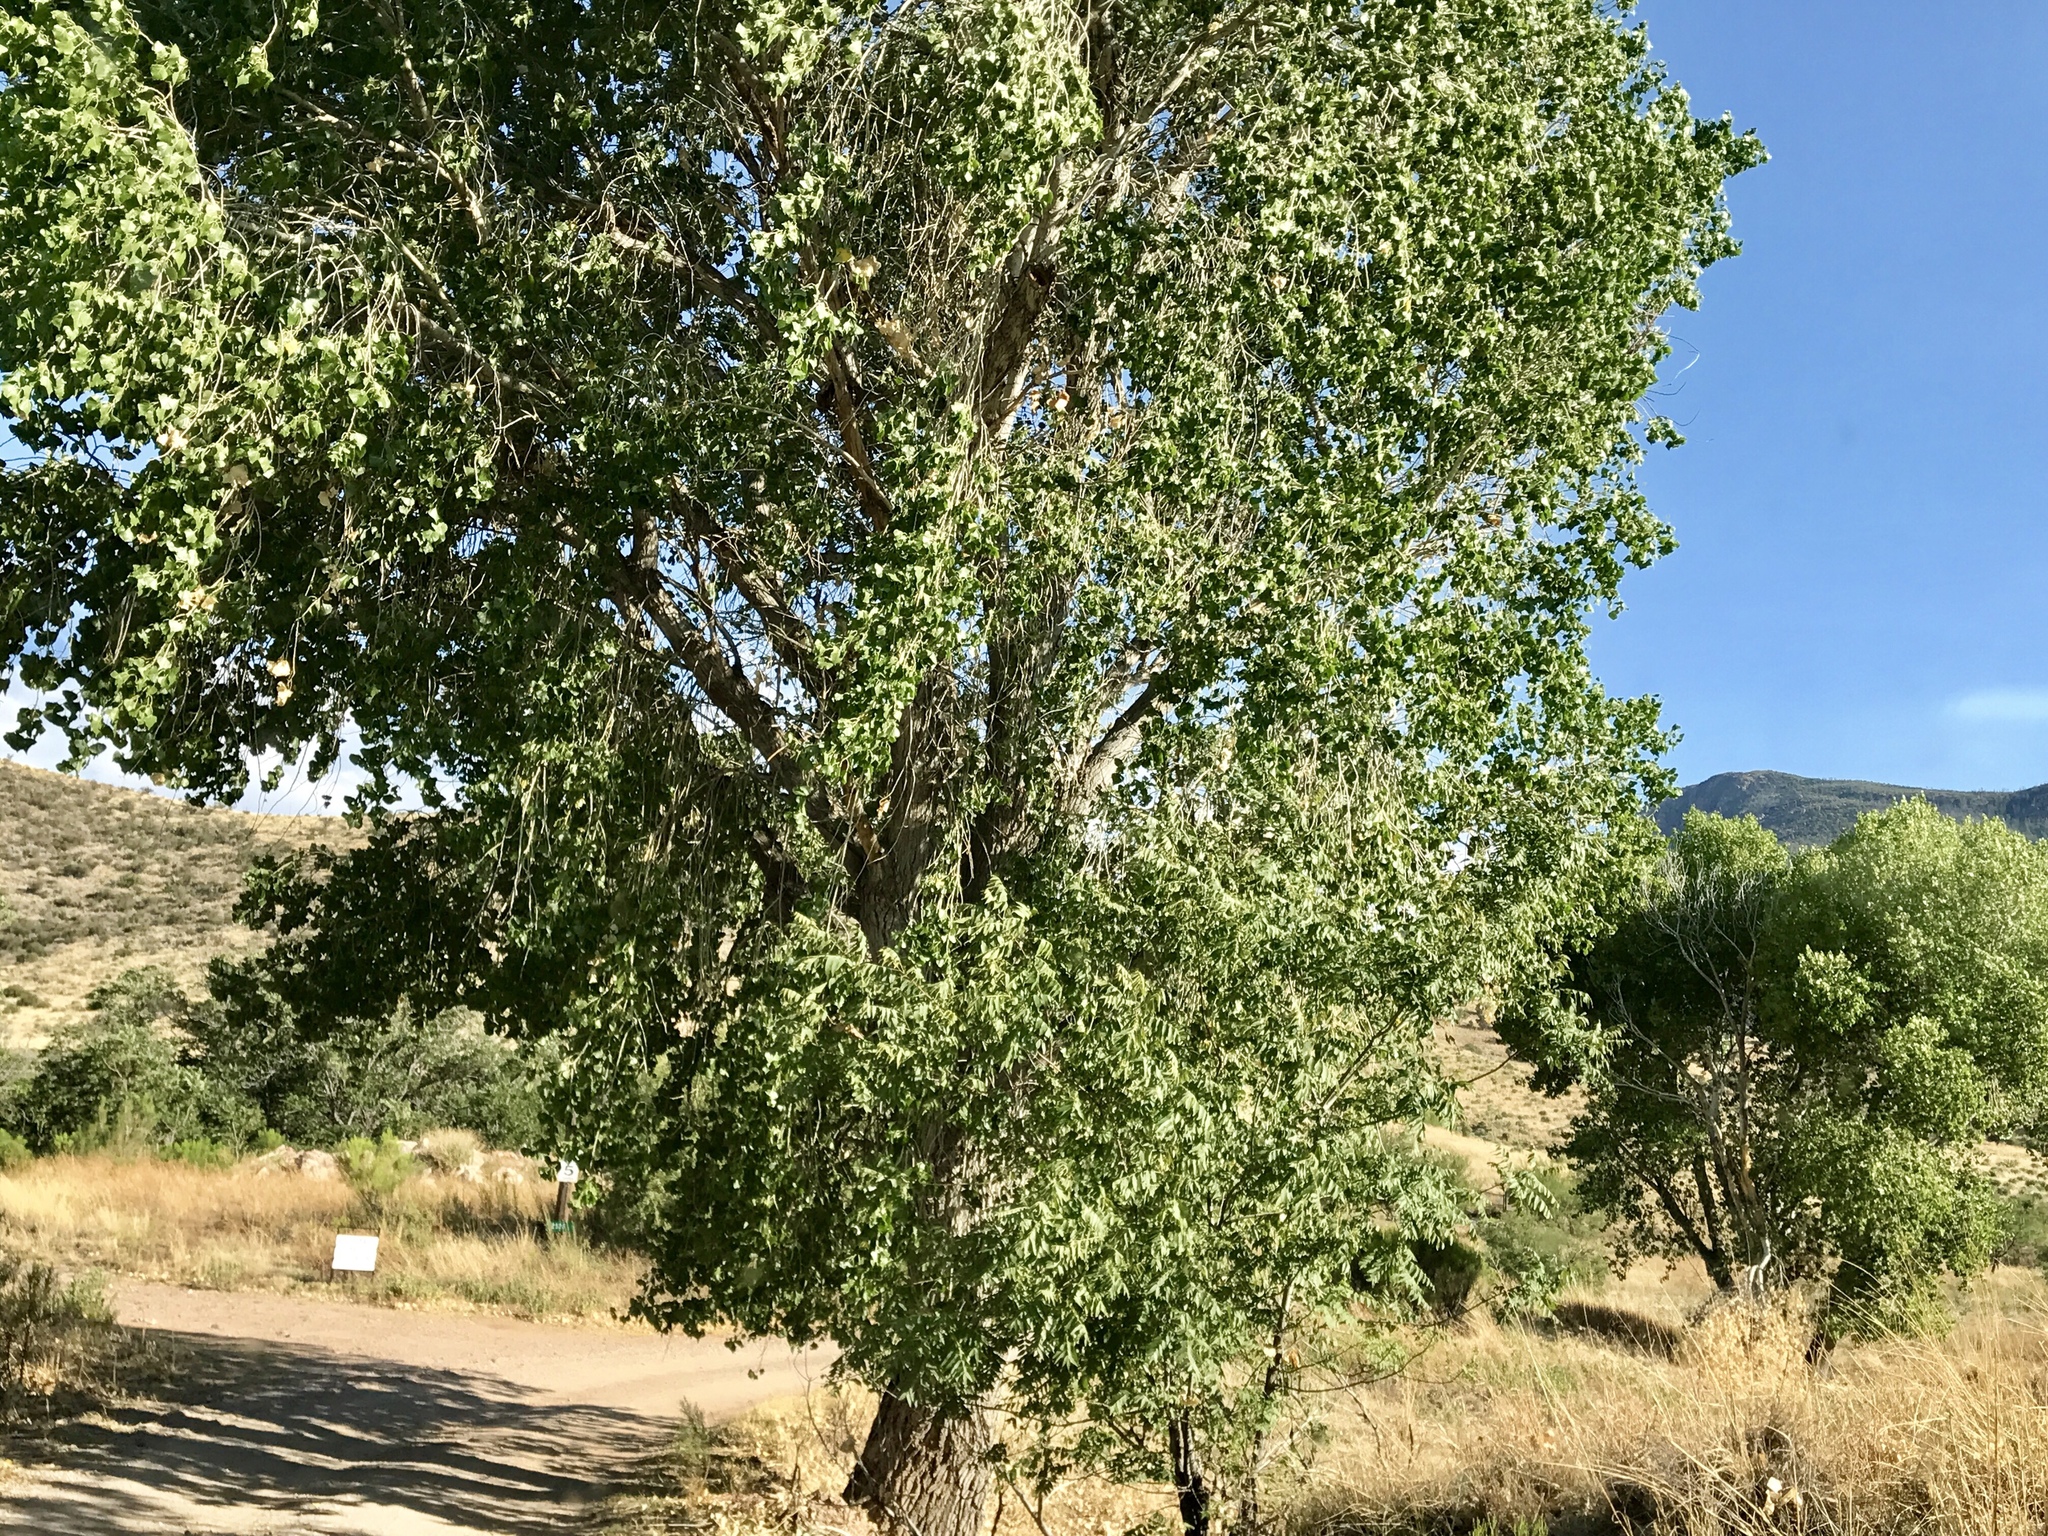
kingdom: Plantae
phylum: Tracheophyta
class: Magnoliopsida
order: Malpighiales
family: Salicaceae
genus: Populus
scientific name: Populus fremontii
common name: Fremont's cottonwood
